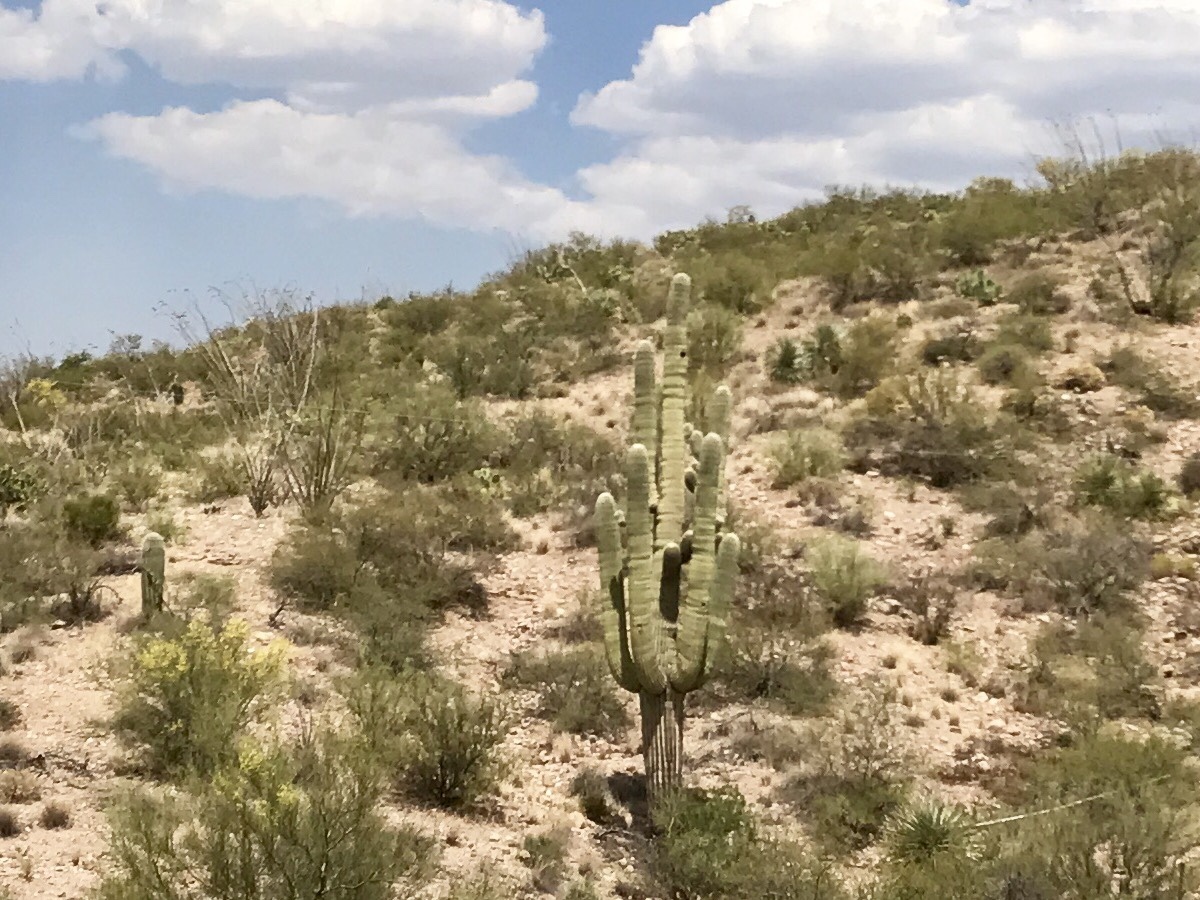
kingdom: Plantae
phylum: Tracheophyta
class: Magnoliopsida
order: Caryophyllales
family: Cactaceae
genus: Carnegiea
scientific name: Carnegiea gigantea
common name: Saguaro
